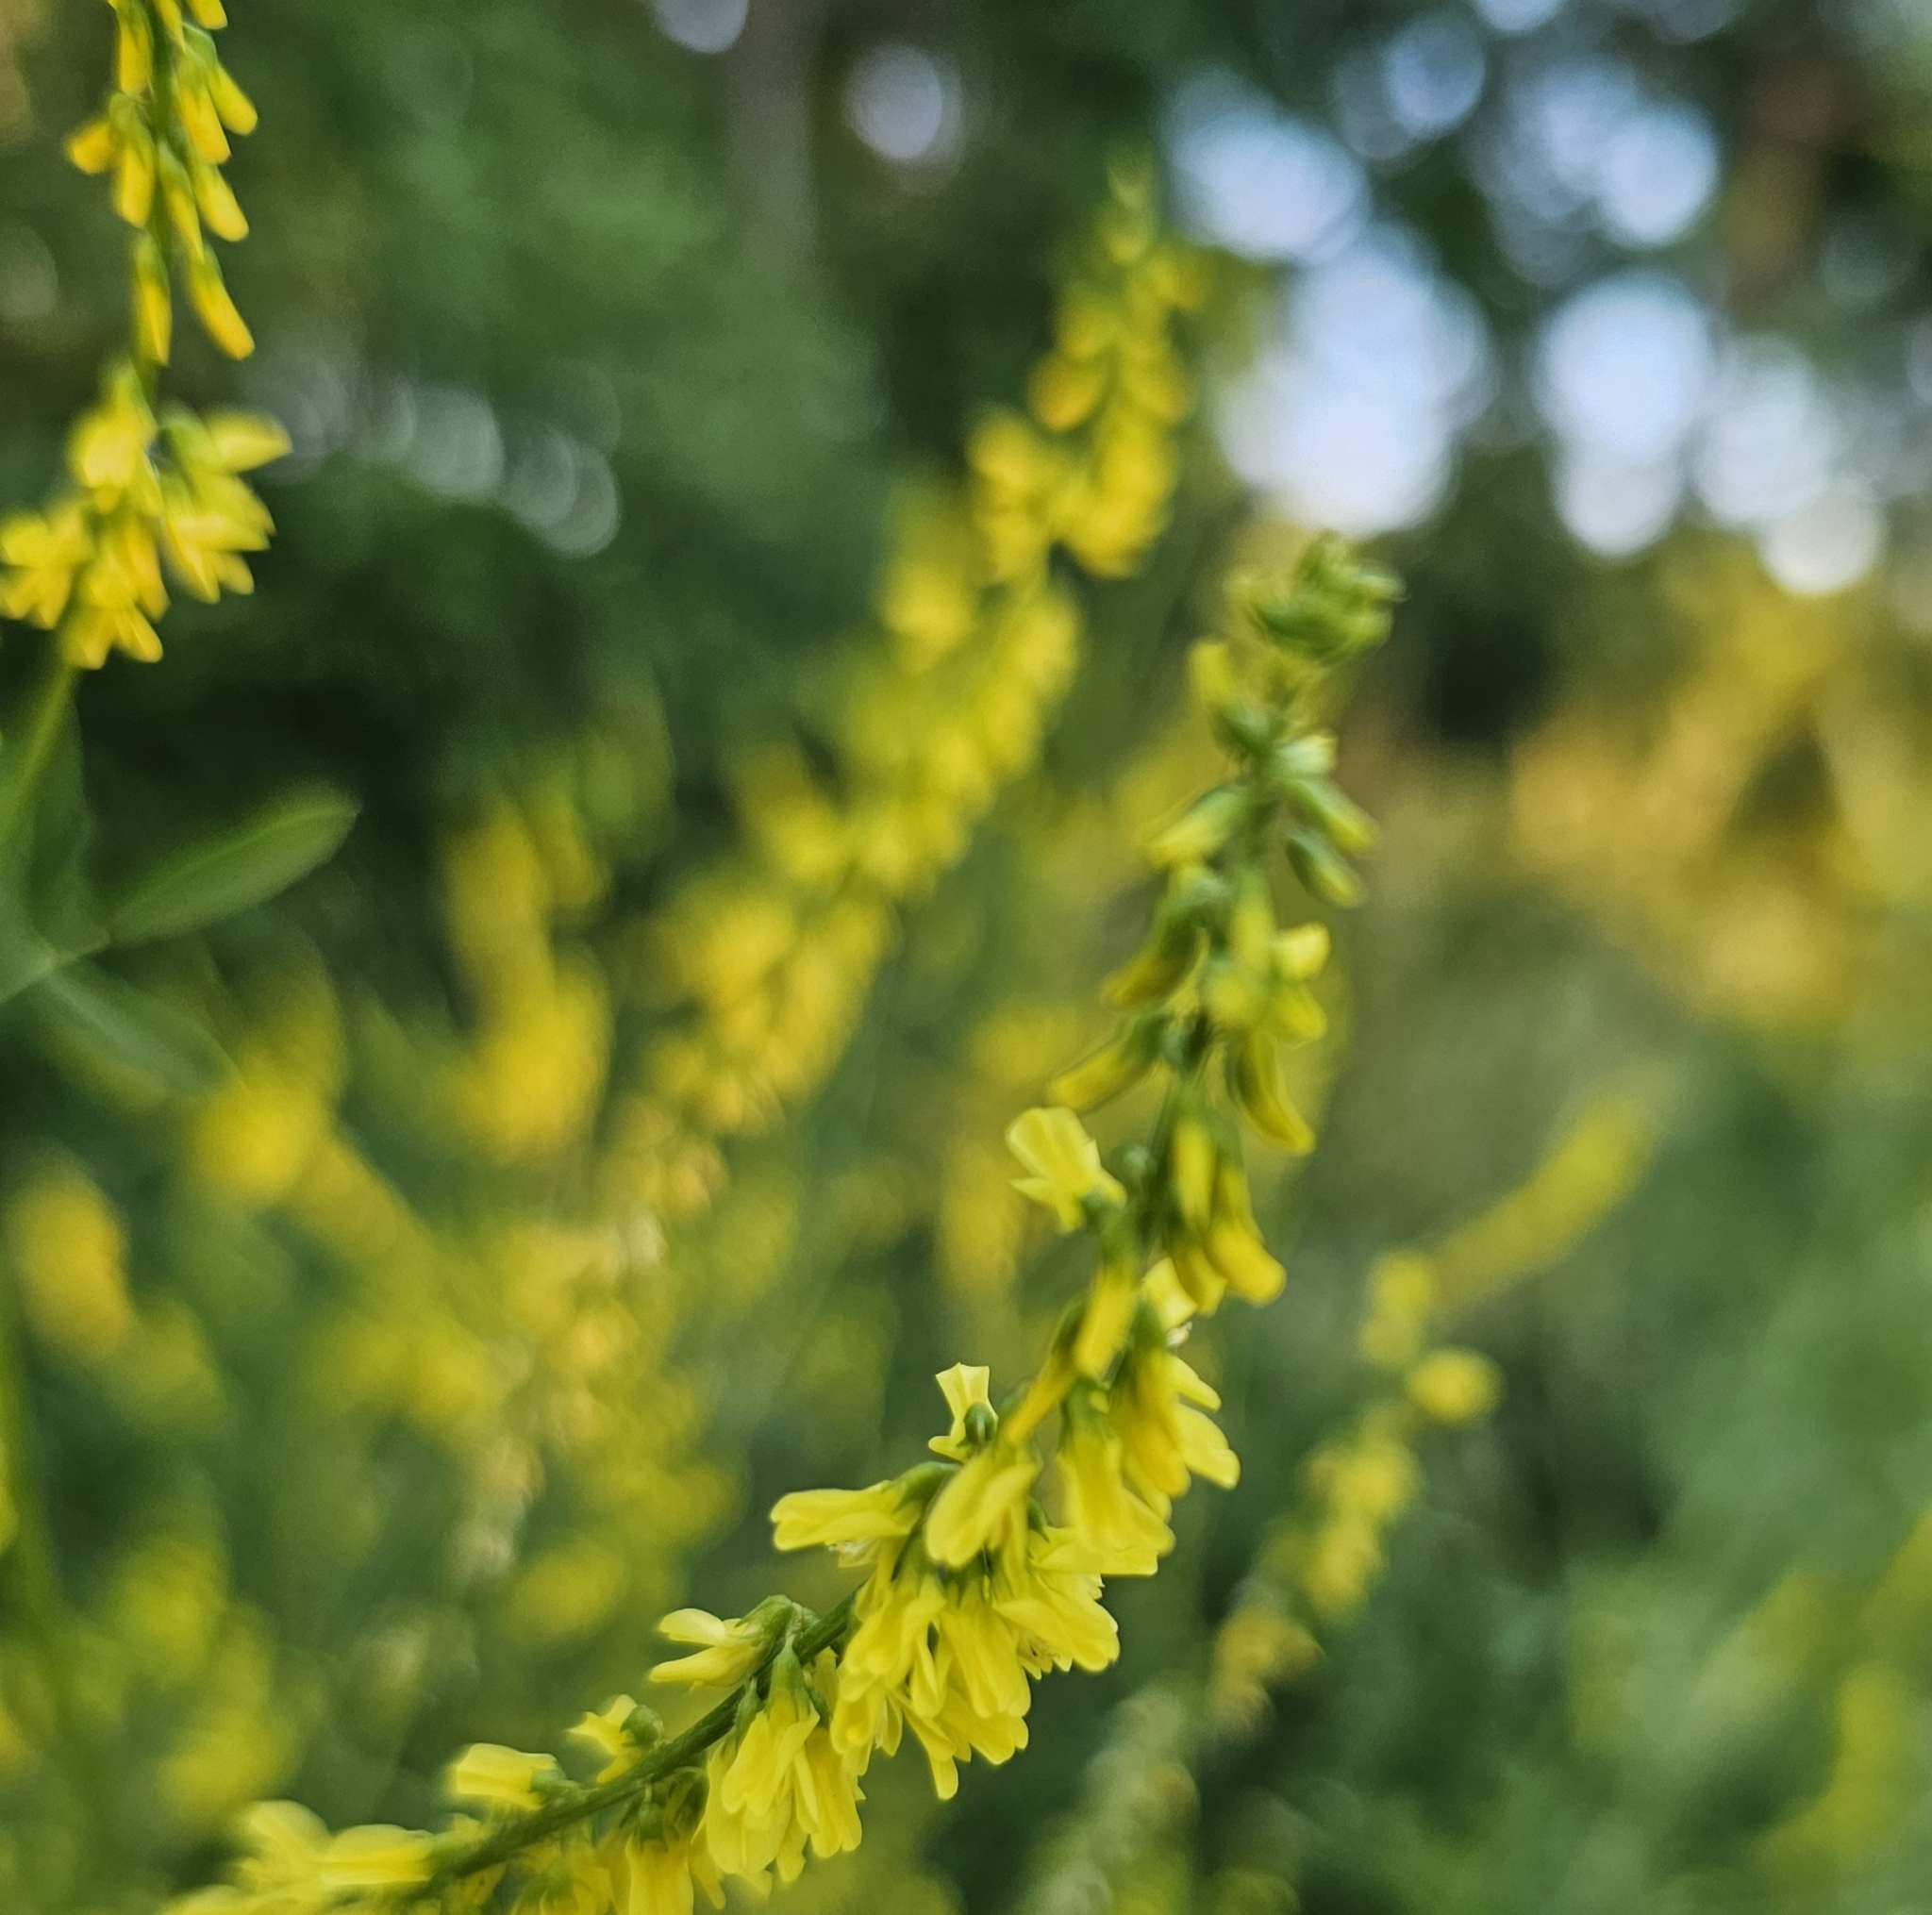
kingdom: Plantae
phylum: Tracheophyta
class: Magnoliopsida
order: Fabales
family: Fabaceae
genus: Melilotus
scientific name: Melilotus officinalis
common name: Sweetclover
